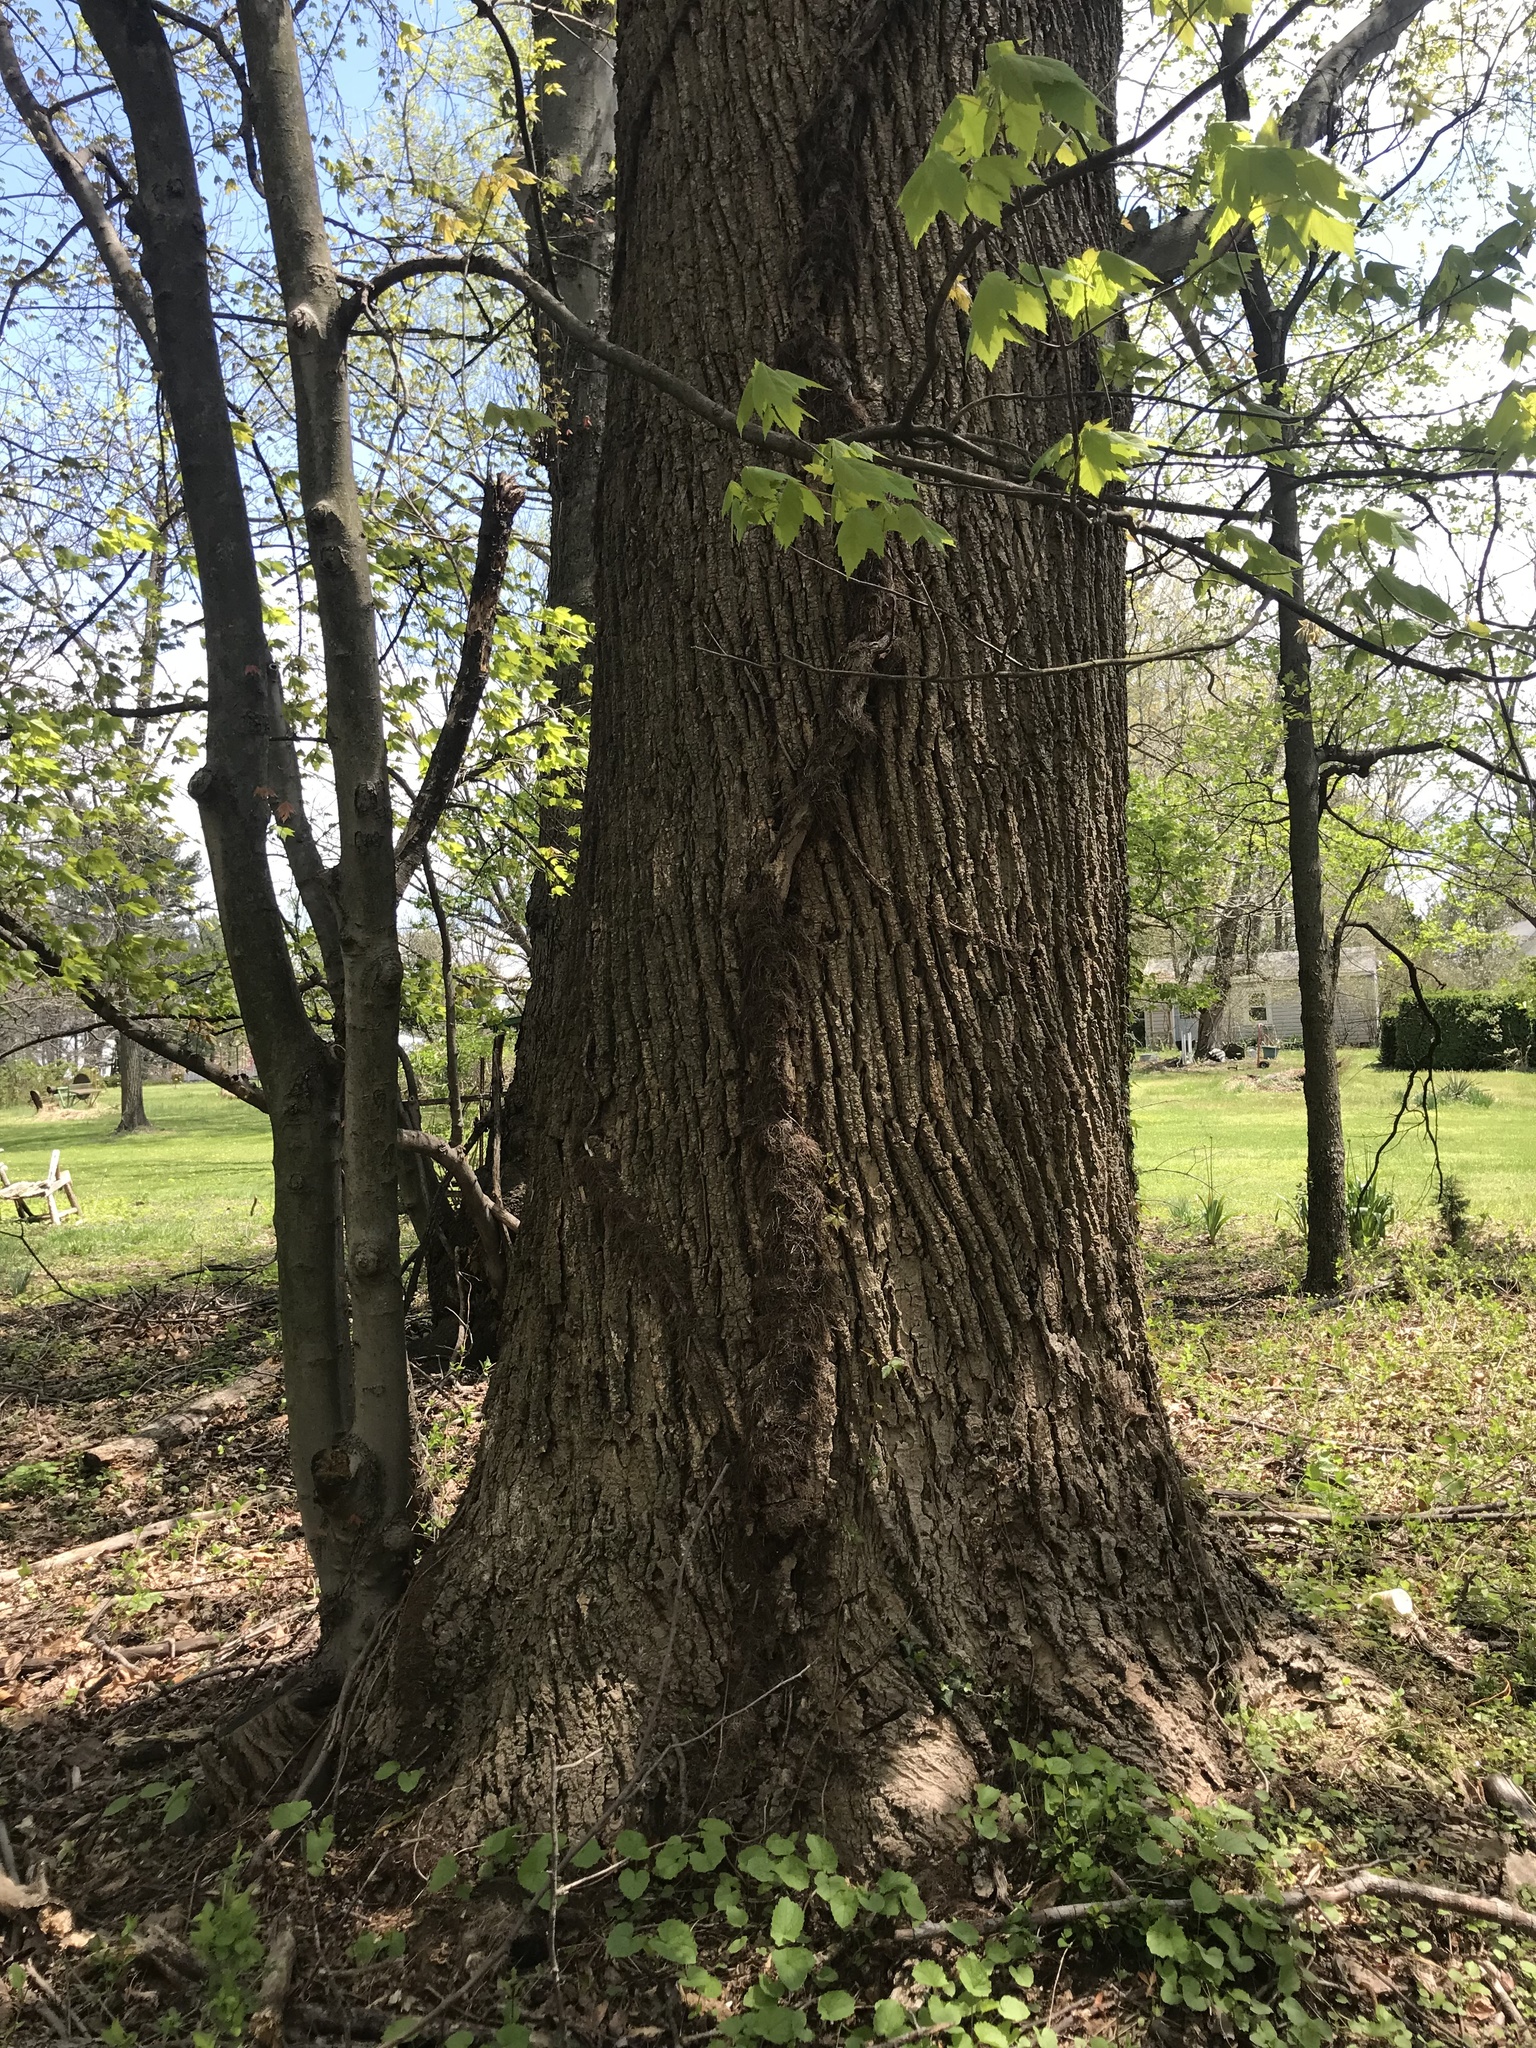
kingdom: Plantae
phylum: Tracheophyta
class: Magnoliopsida
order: Magnoliales
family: Magnoliaceae
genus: Liriodendron
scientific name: Liriodendron tulipifera
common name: Tulip tree
